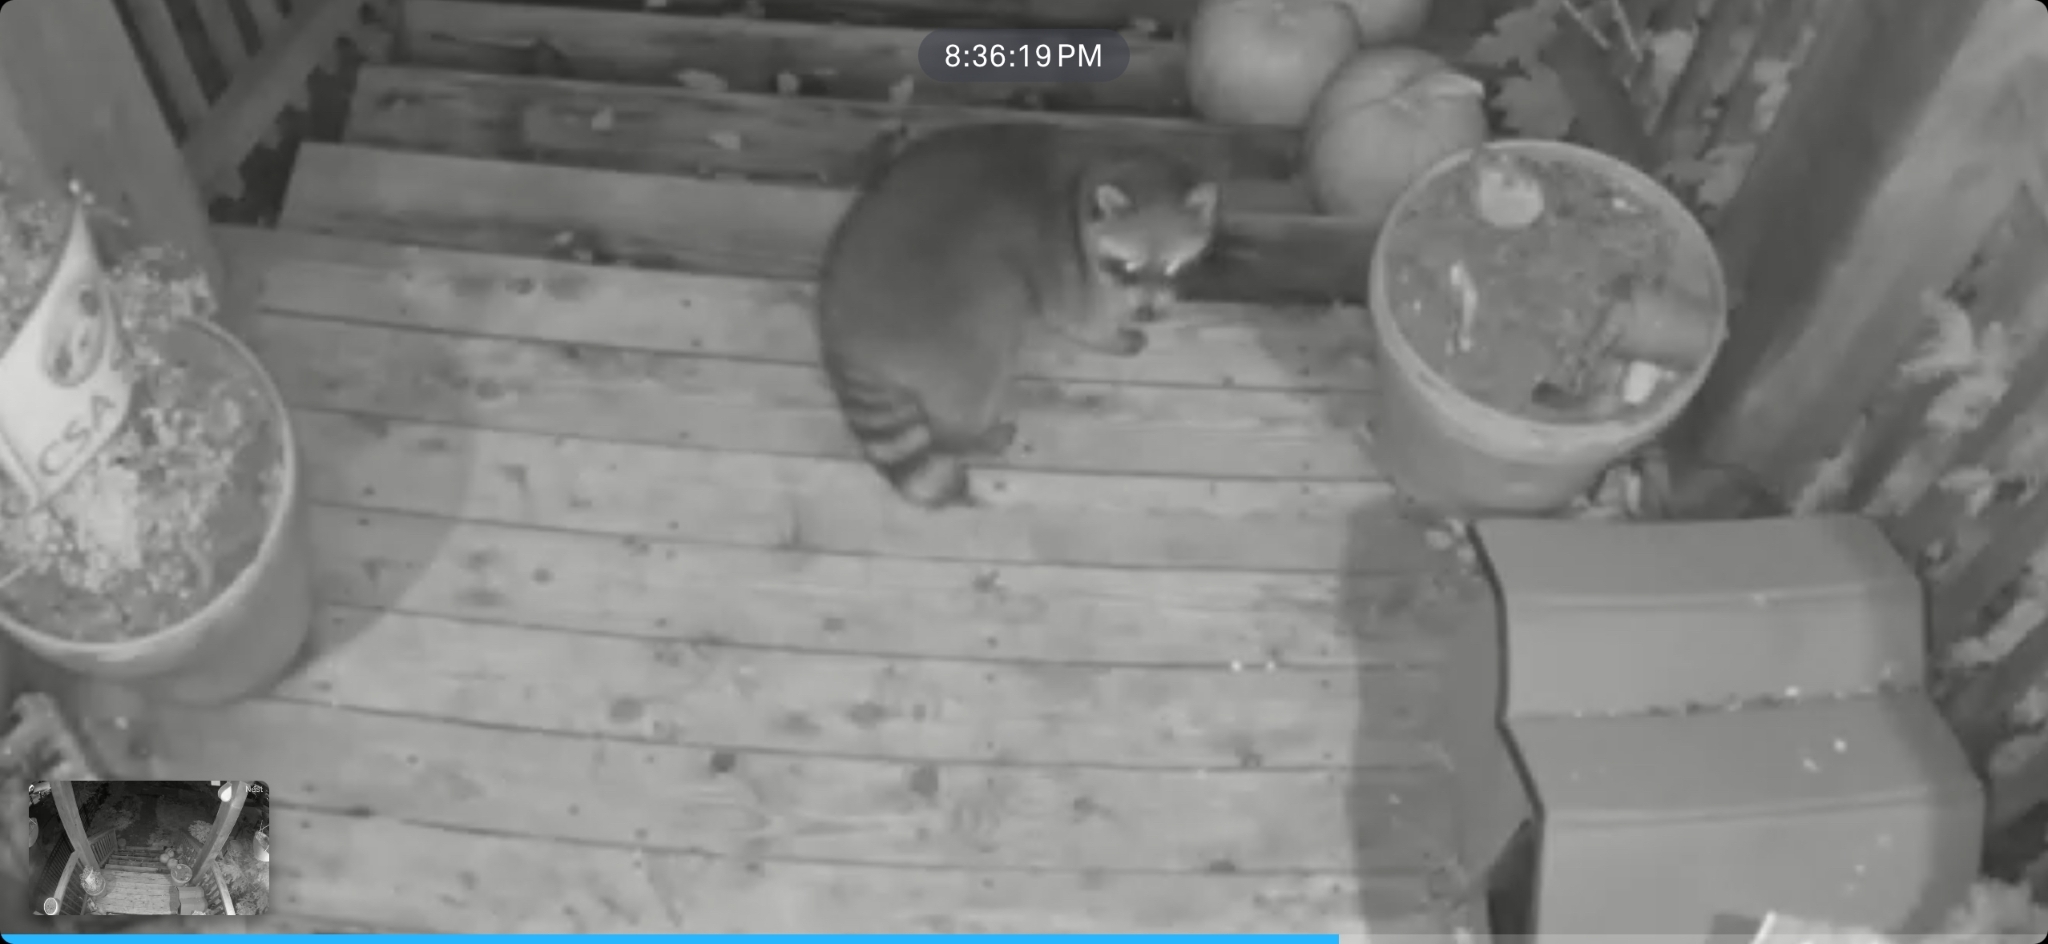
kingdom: Animalia
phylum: Chordata
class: Mammalia
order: Carnivora
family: Procyonidae
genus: Procyon
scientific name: Procyon lotor
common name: Raccoon
